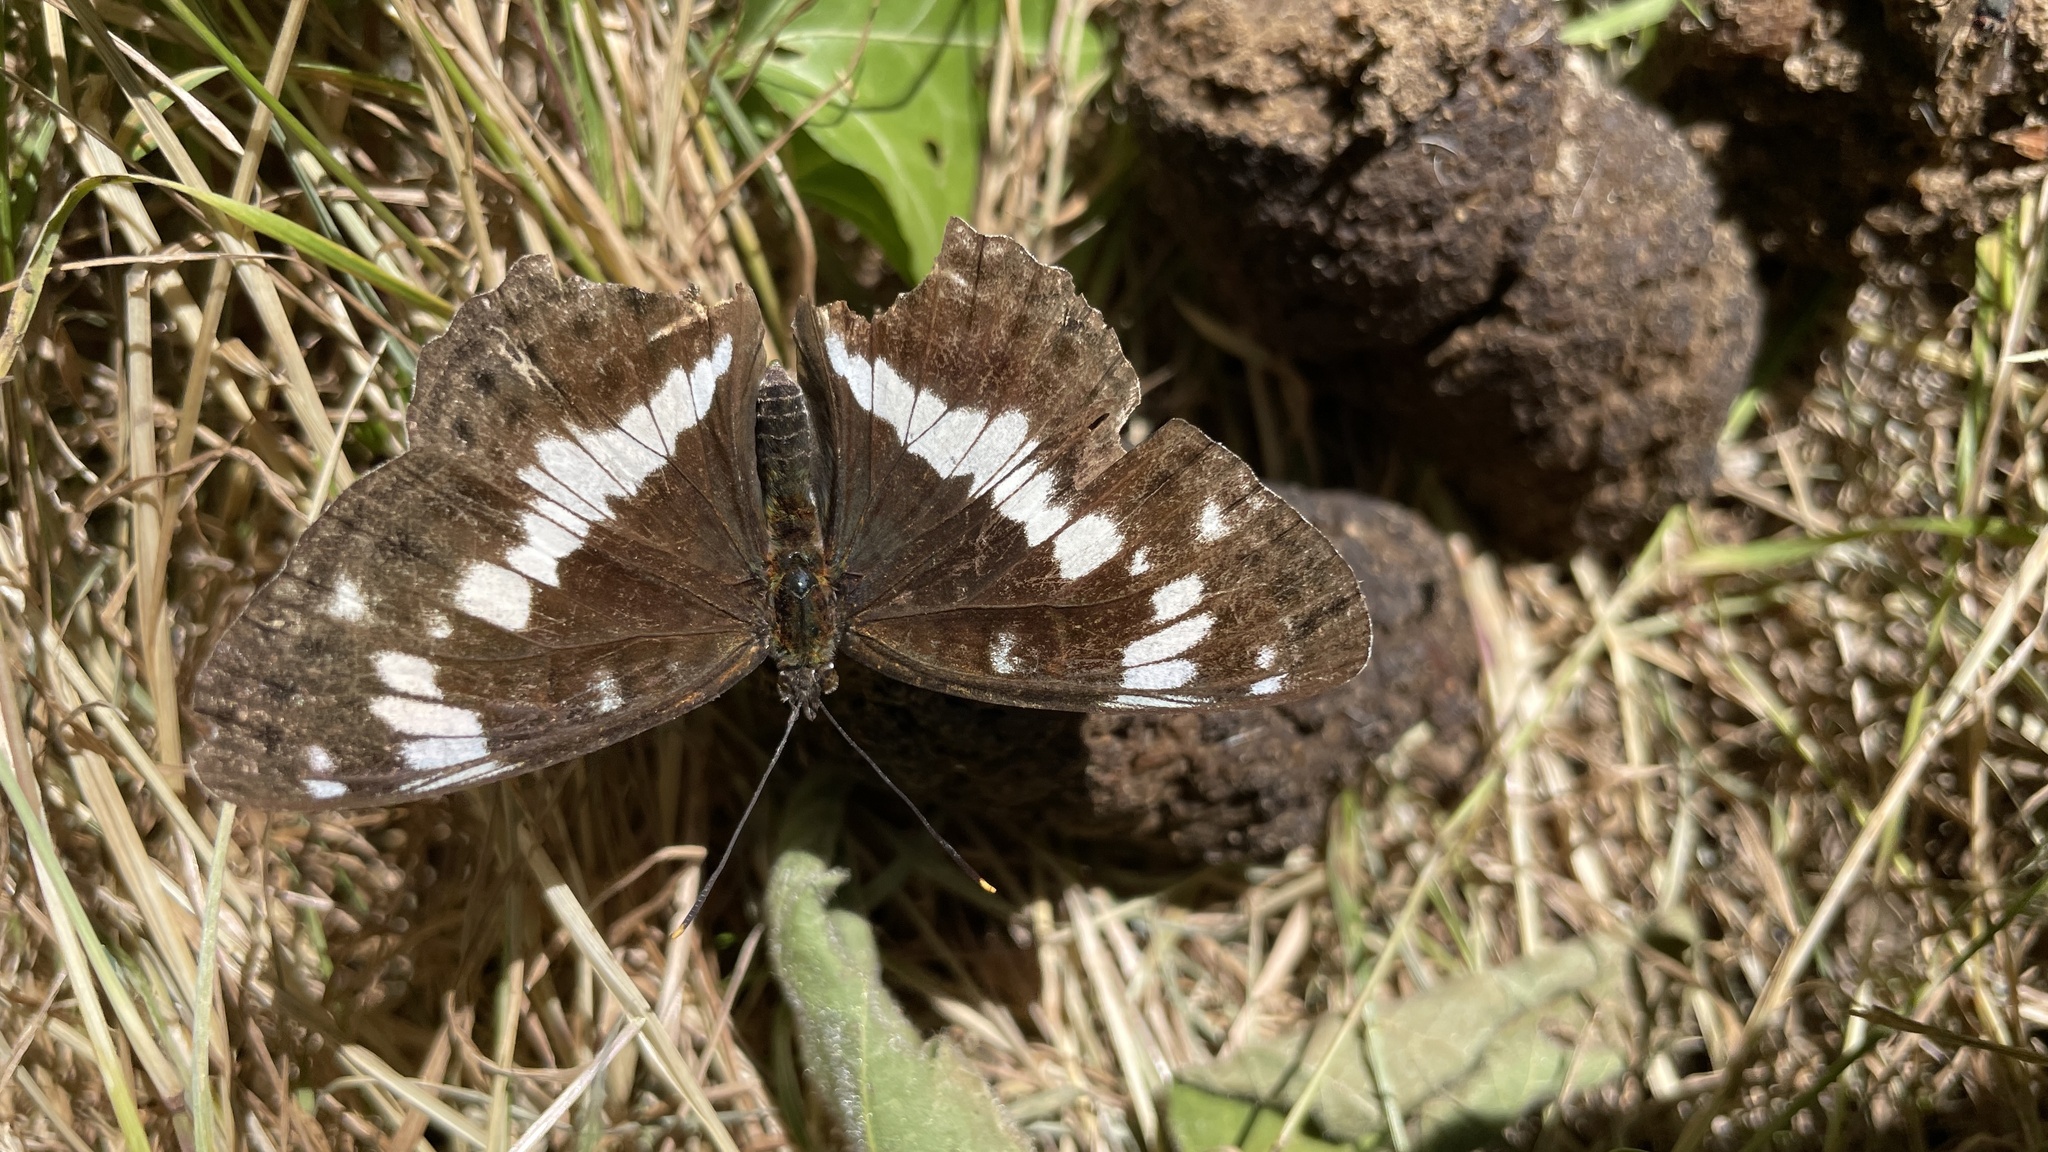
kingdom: Animalia
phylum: Arthropoda
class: Insecta
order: Lepidoptera
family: Nymphalidae
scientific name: Nymphalidae
